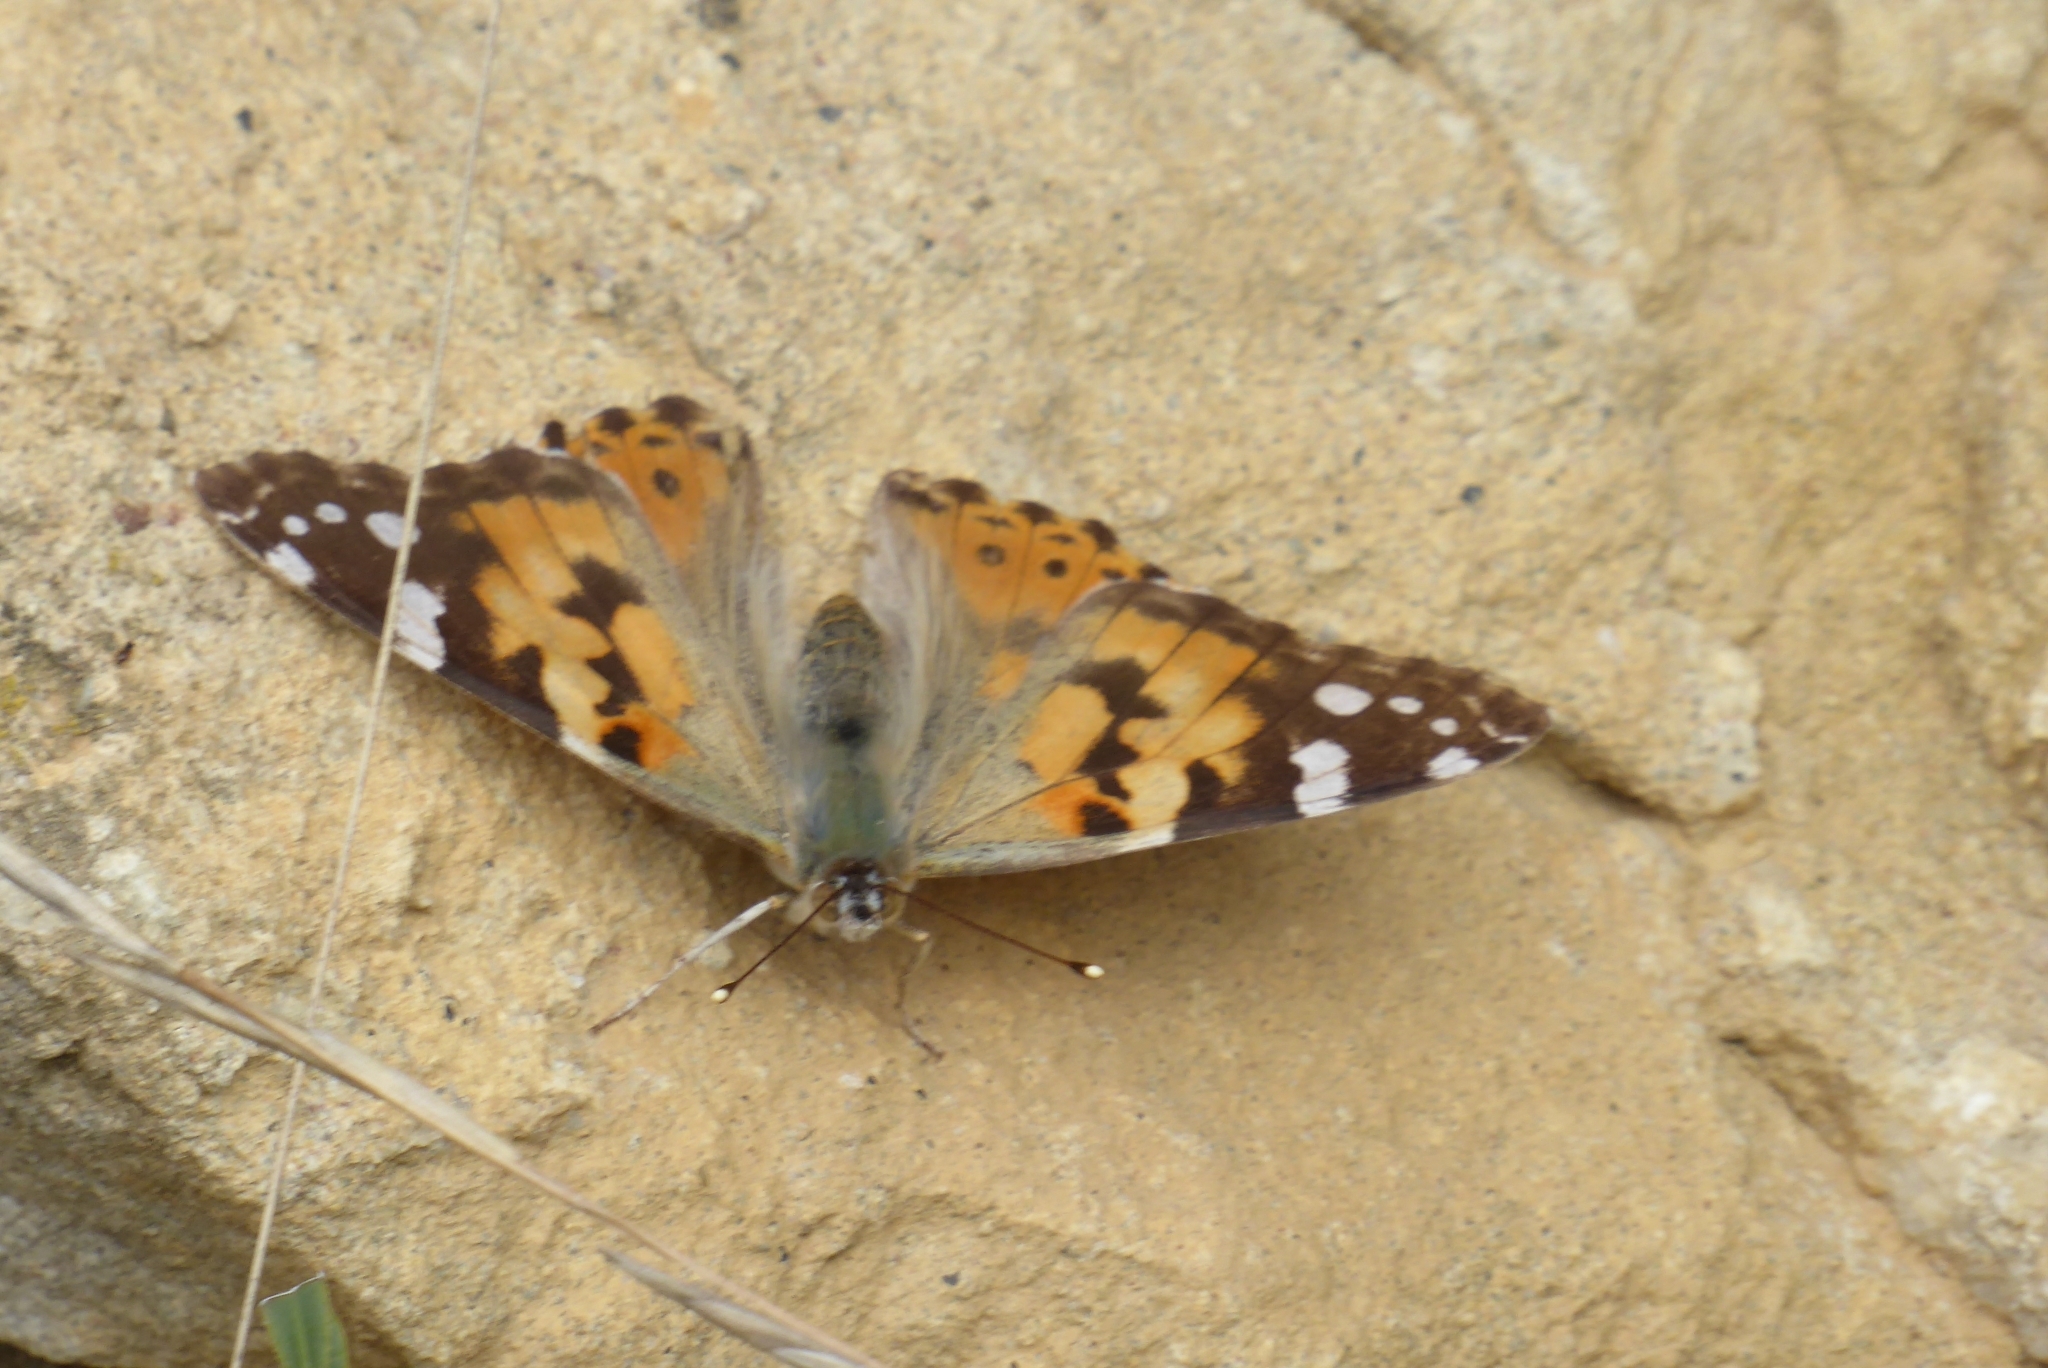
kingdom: Animalia
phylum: Arthropoda
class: Insecta
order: Lepidoptera
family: Nymphalidae
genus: Vanessa
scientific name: Vanessa cardui
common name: Painted lady
